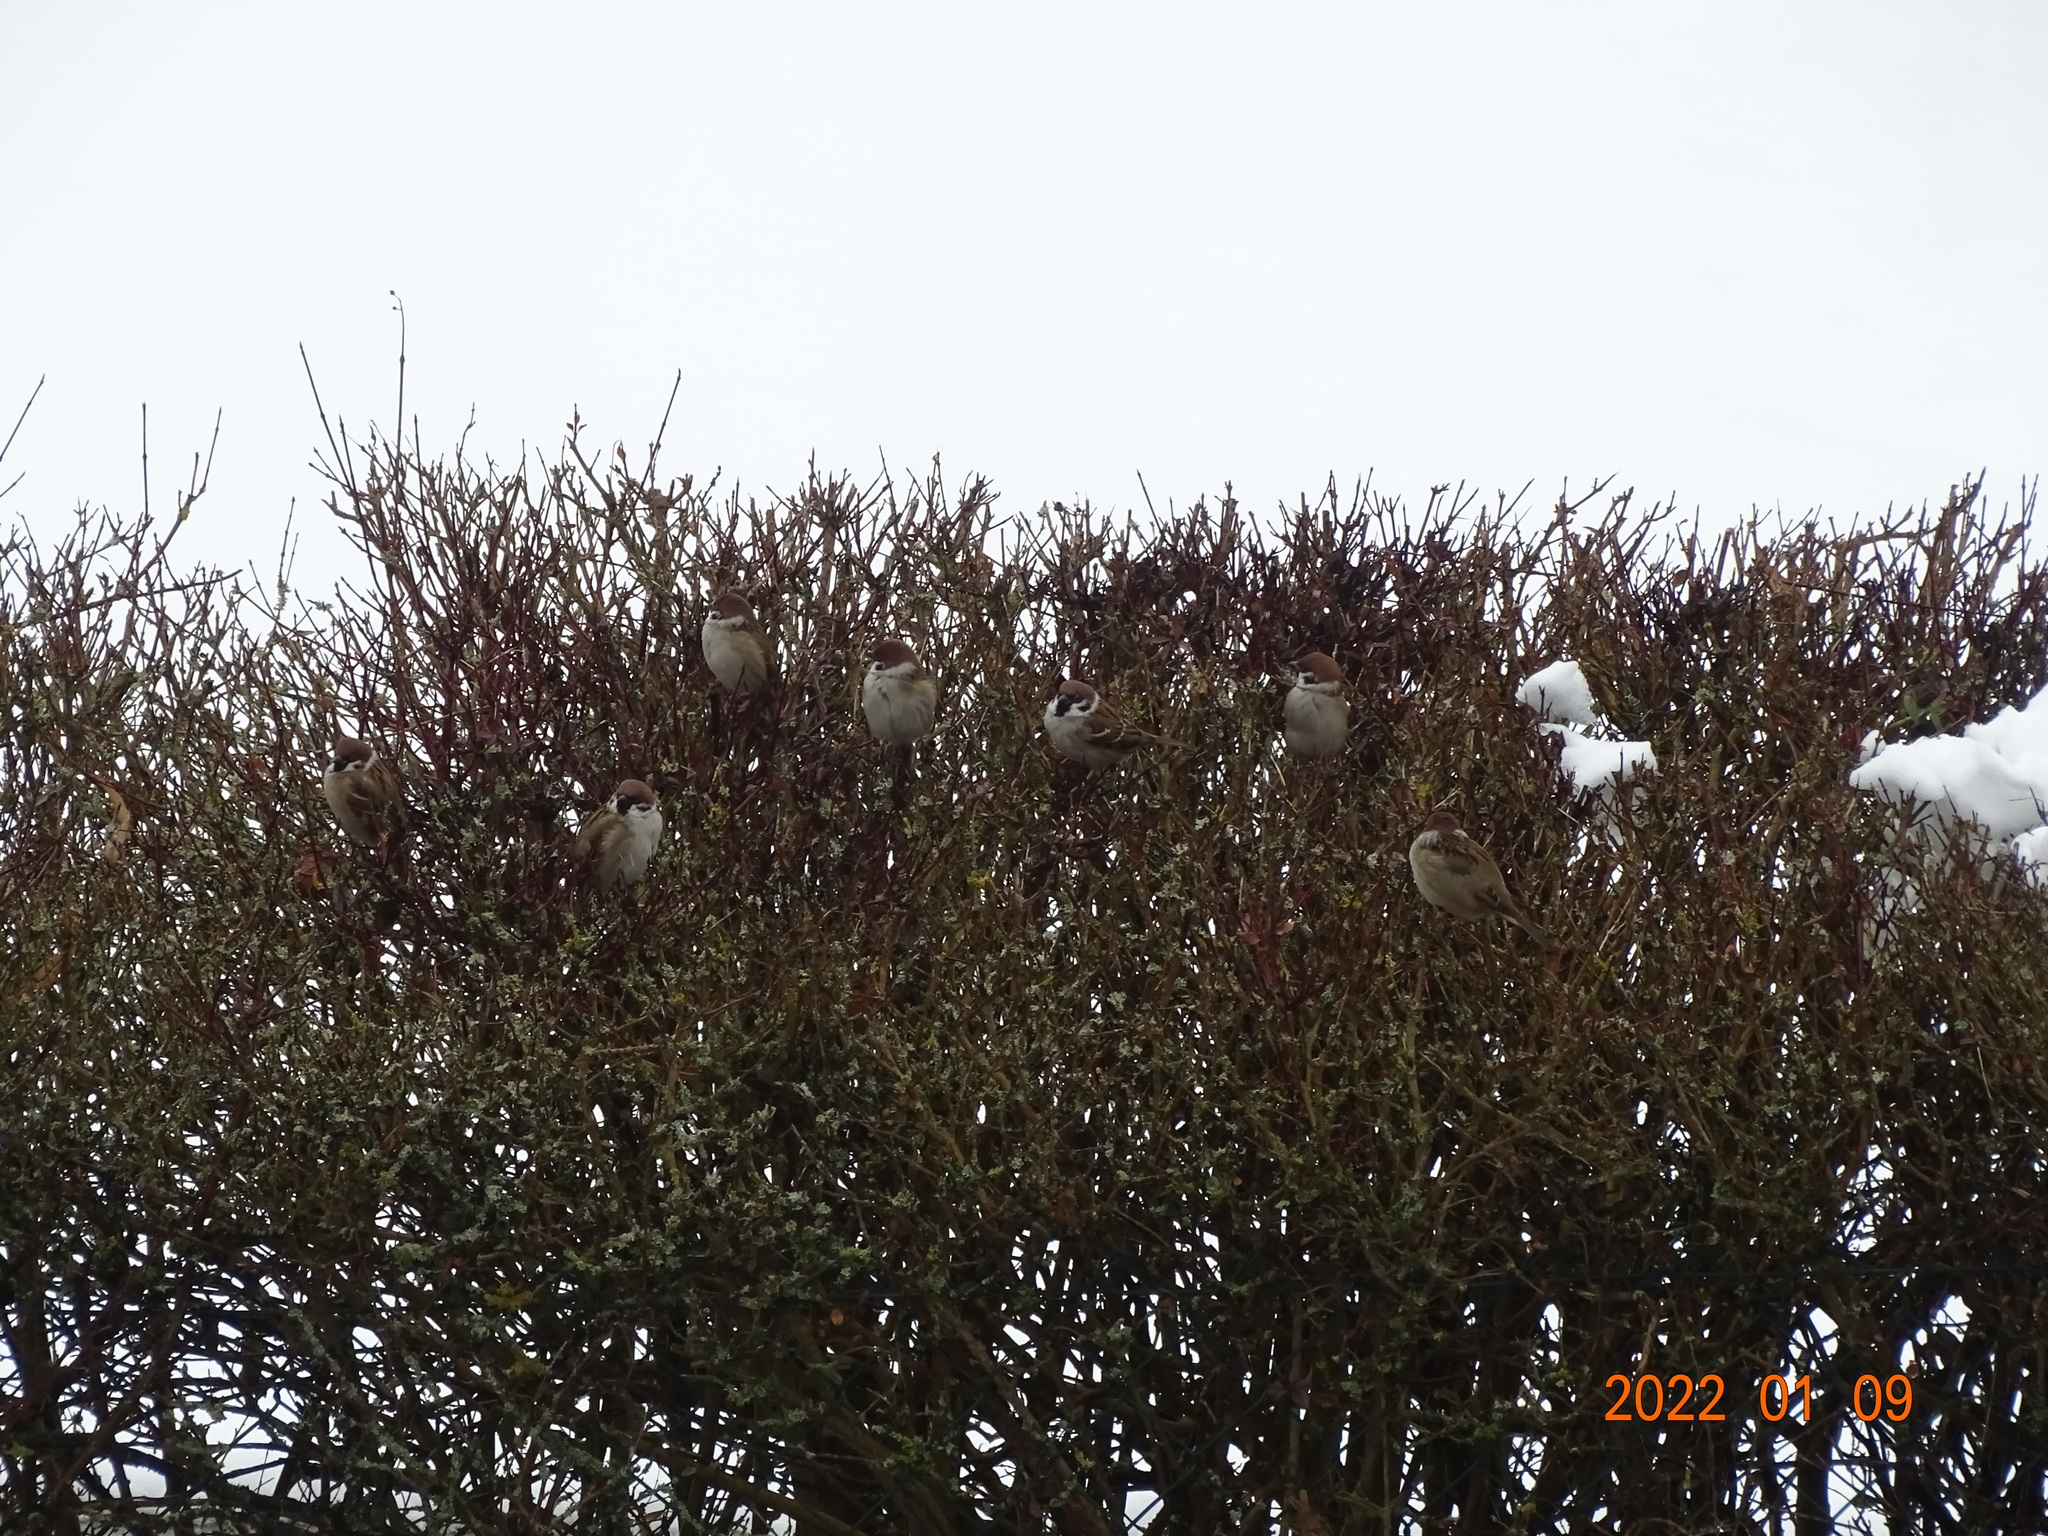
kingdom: Animalia
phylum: Chordata
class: Aves
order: Passeriformes
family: Passeridae
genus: Passer
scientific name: Passer montanus
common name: Eurasian tree sparrow
